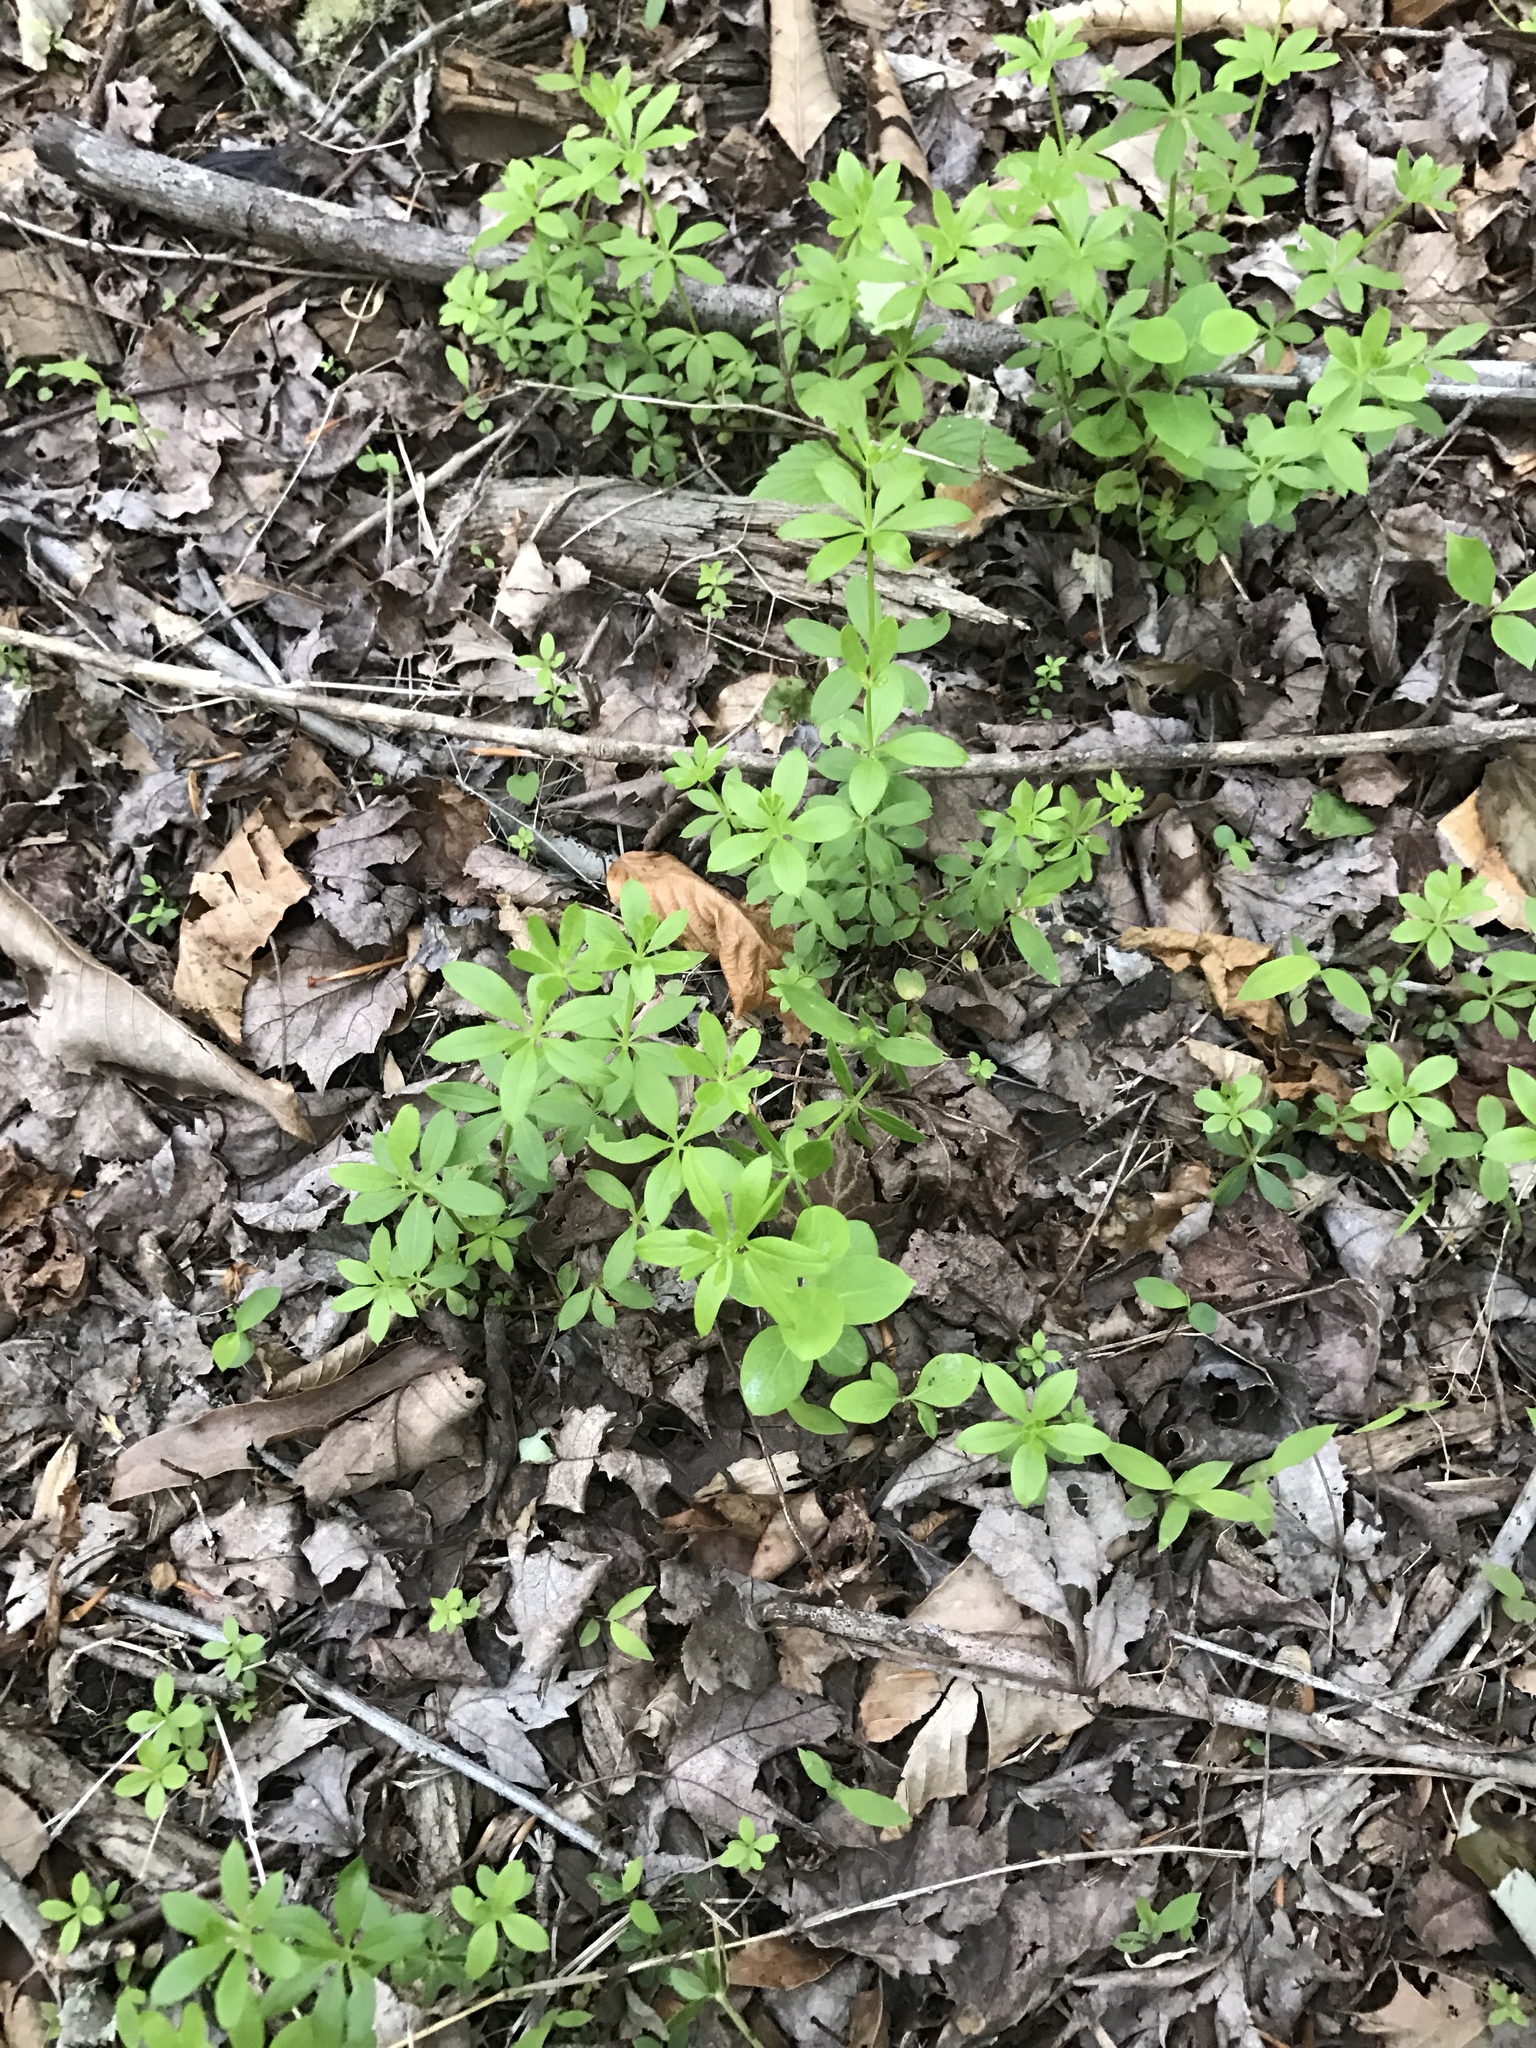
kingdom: Plantae
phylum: Tracheophyta
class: Magnoliopsida
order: Gentianales
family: Rubiaceae
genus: Galium
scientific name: Galium triflorum
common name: Fragrant bedstraw
